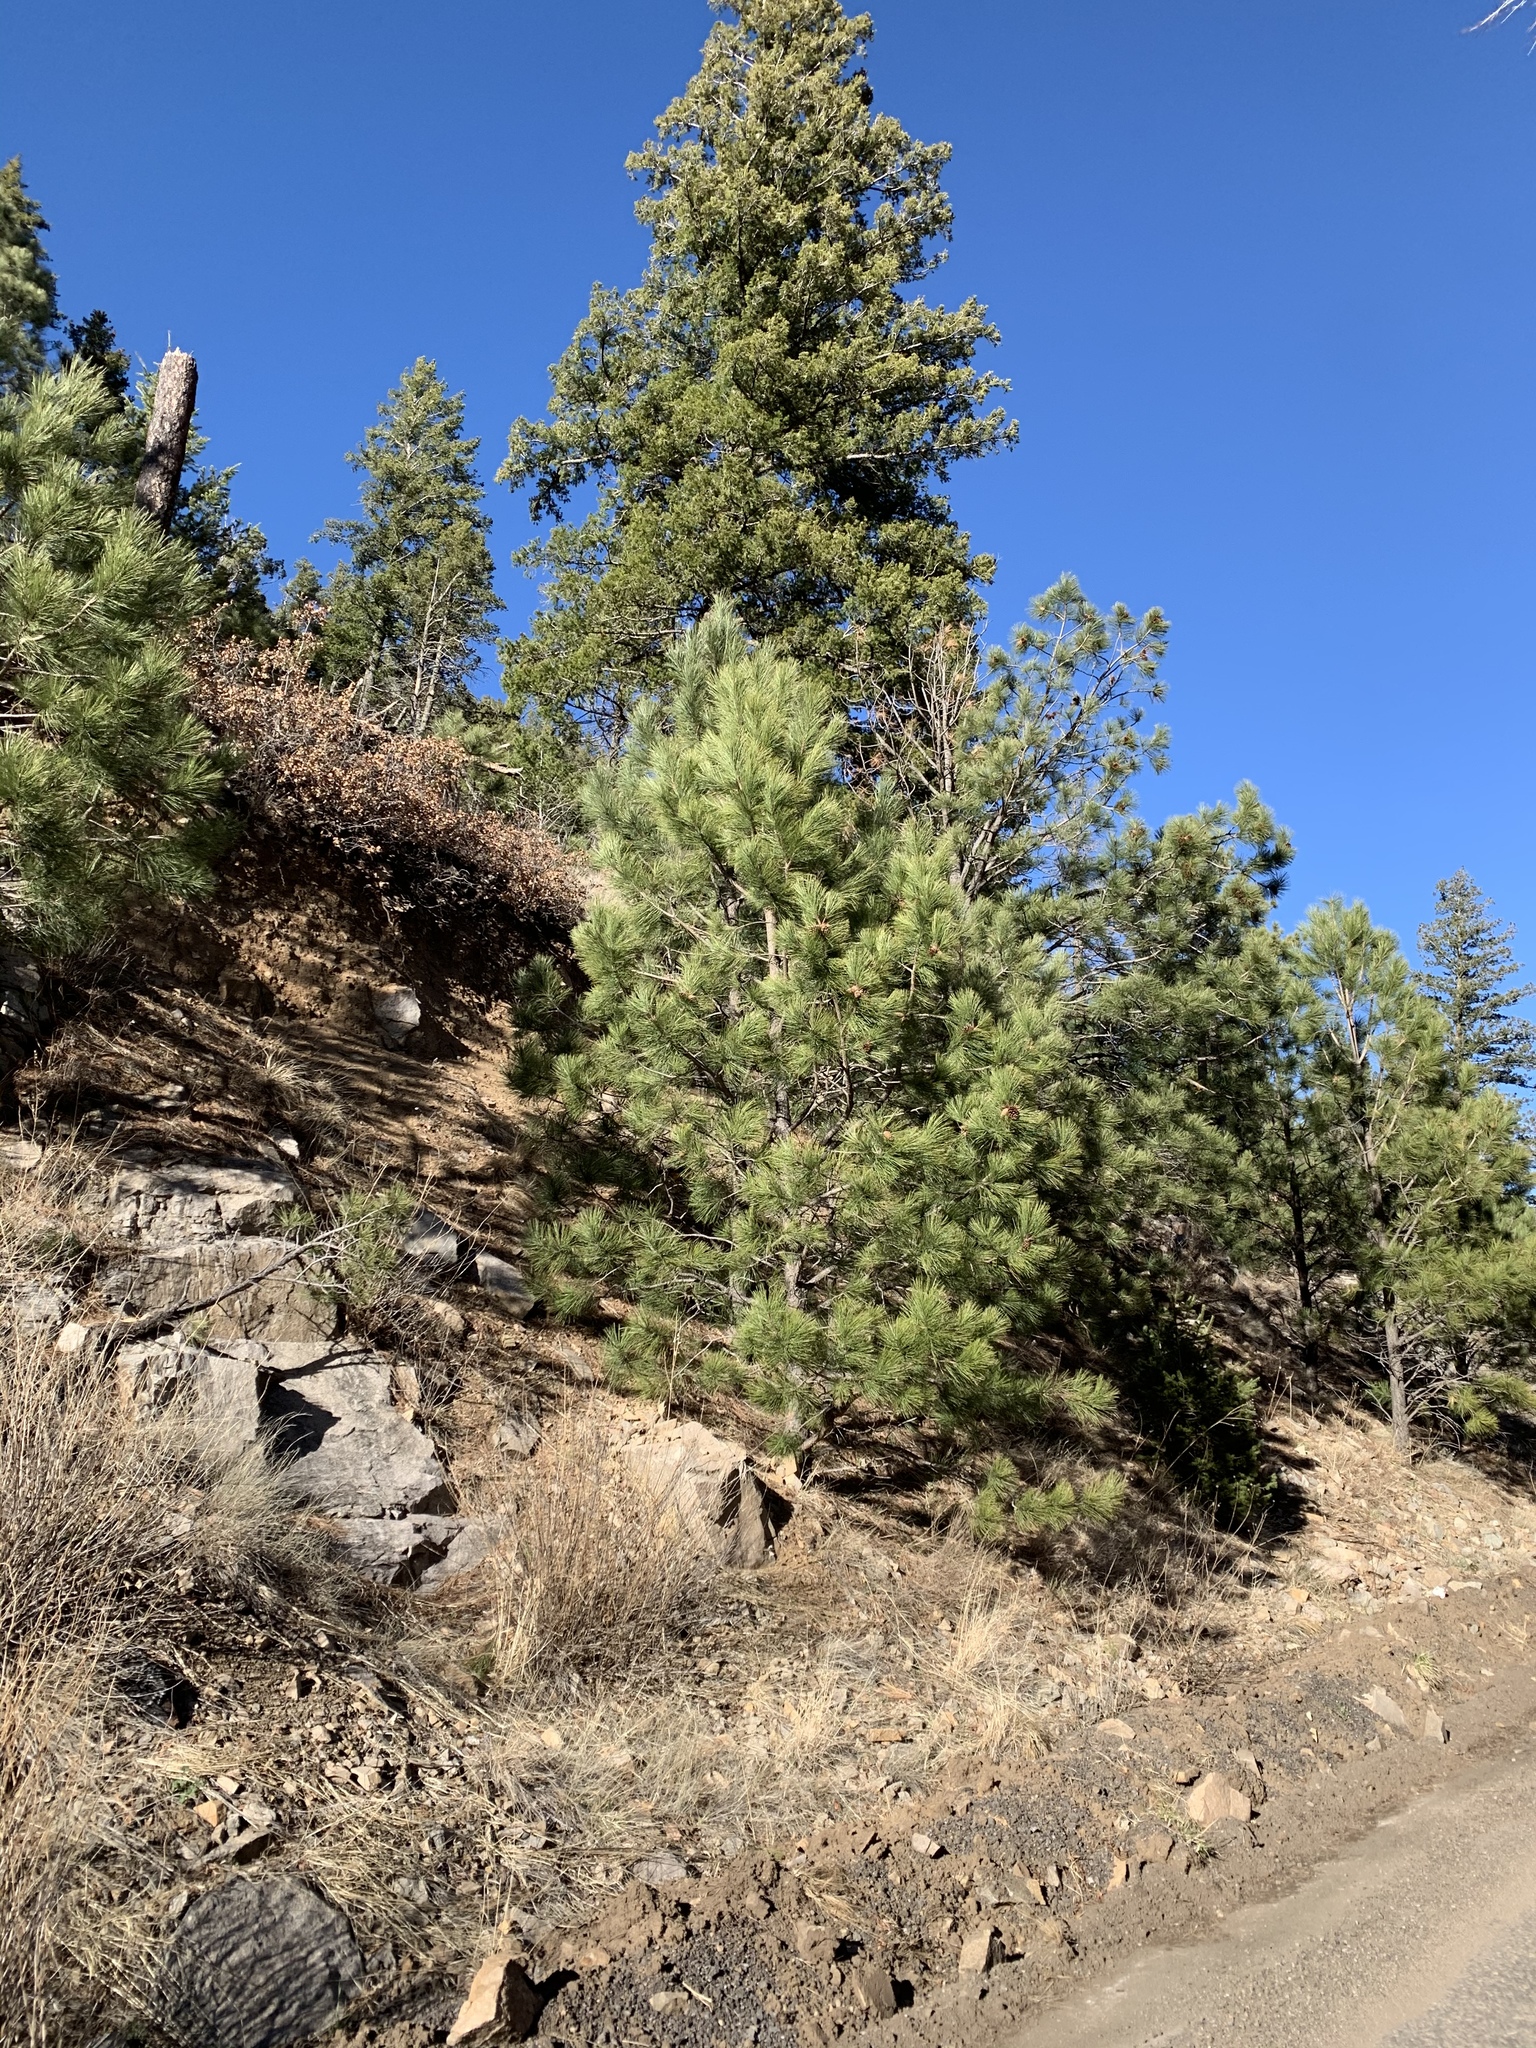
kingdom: Plantae
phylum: Tracheophyta
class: Pinopsida
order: Pinales
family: Pinaceae
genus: Pinus
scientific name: Pinus ponderosa
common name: Western yellow-pine
